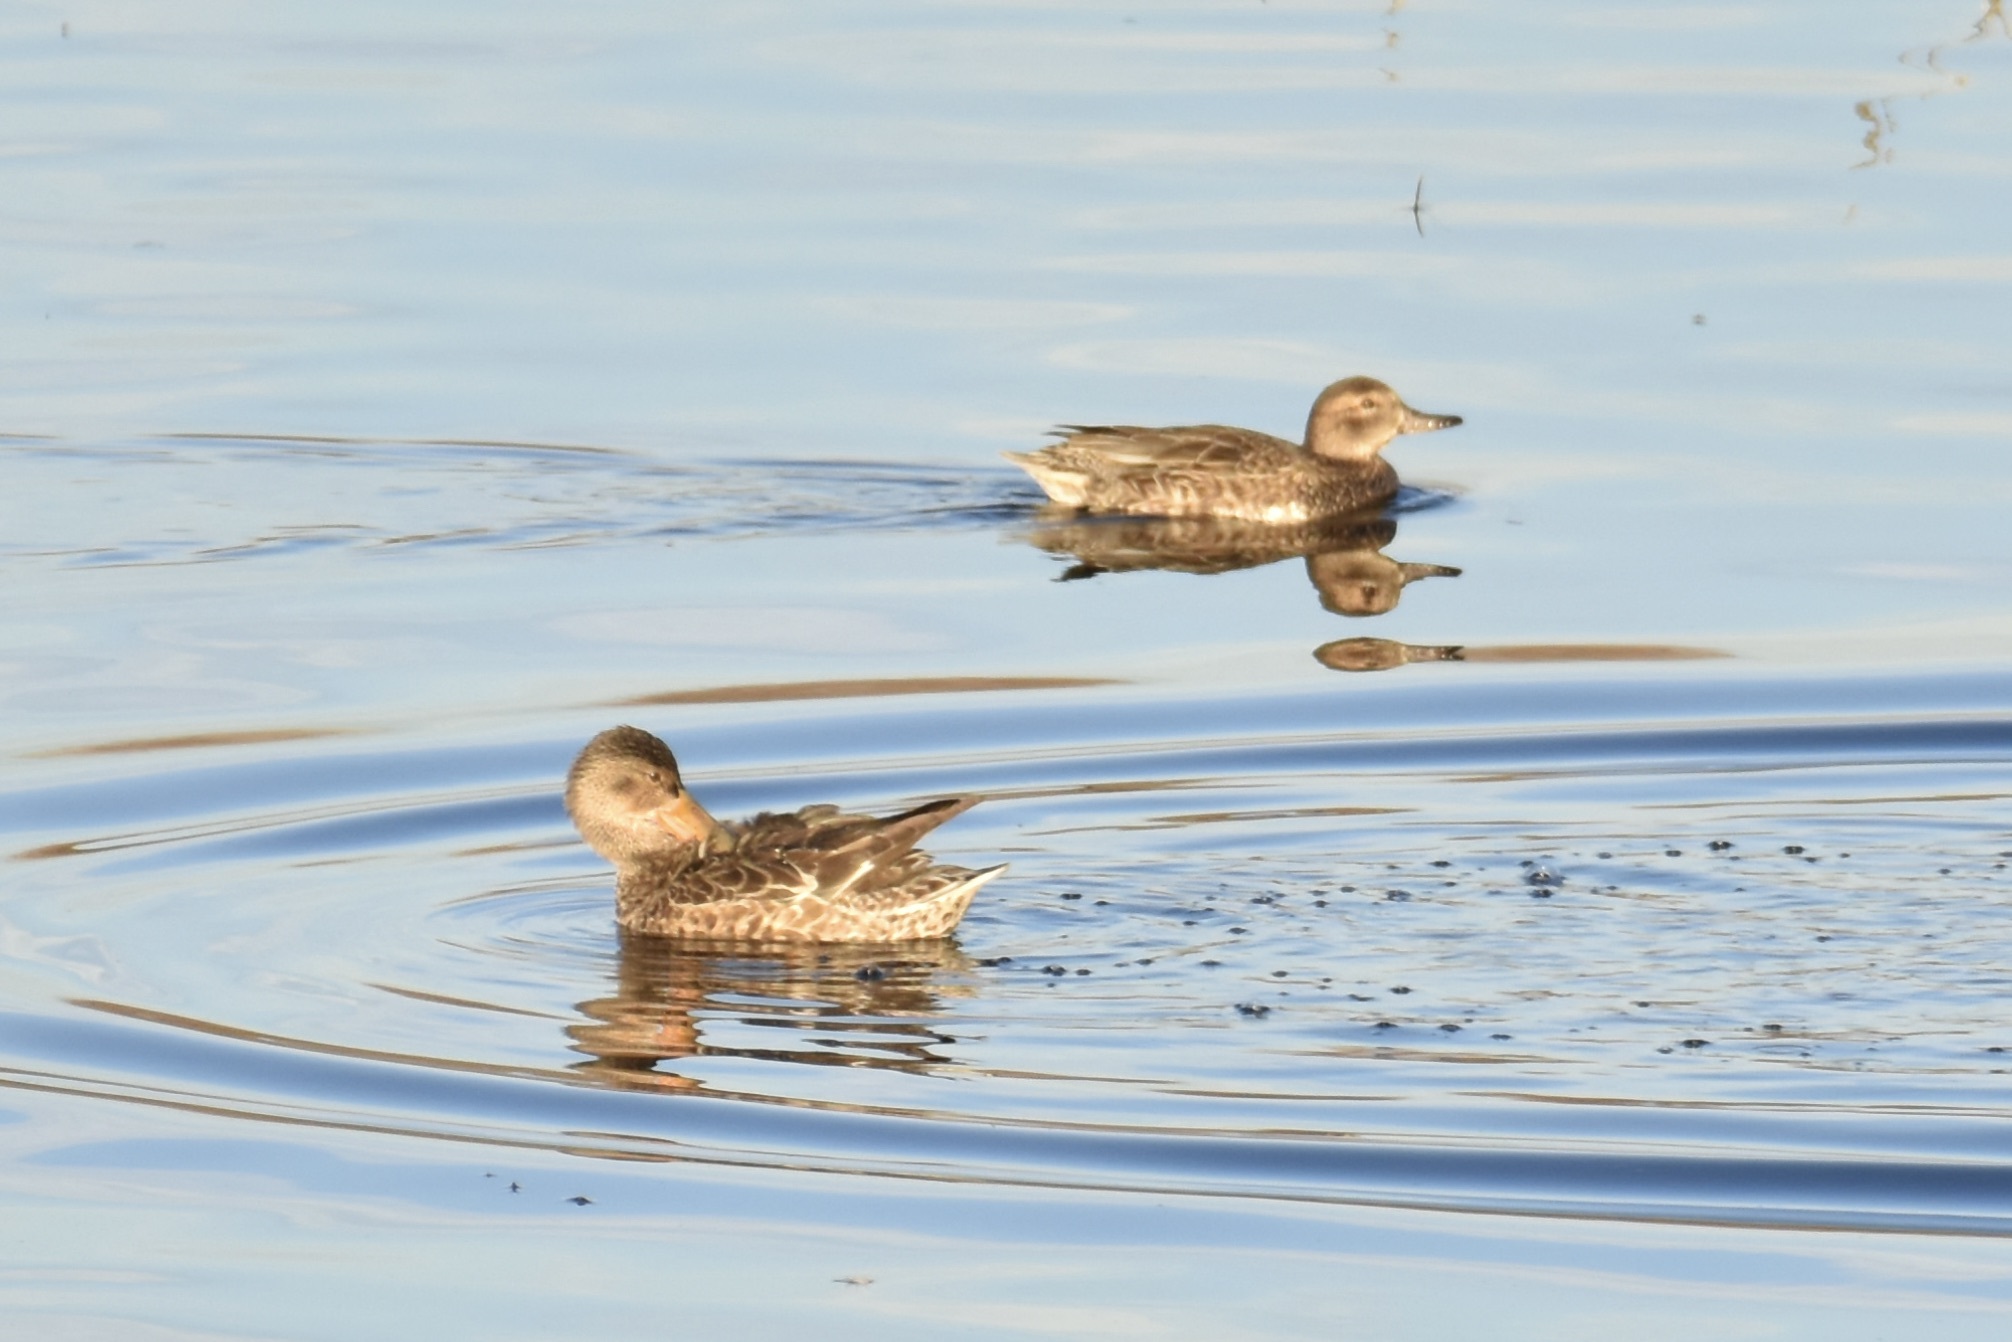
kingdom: Animalia
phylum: Chordata
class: Aves
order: Anseriformes
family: Anatidae
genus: Anas
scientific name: Anas crecca
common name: Eurasian teal
